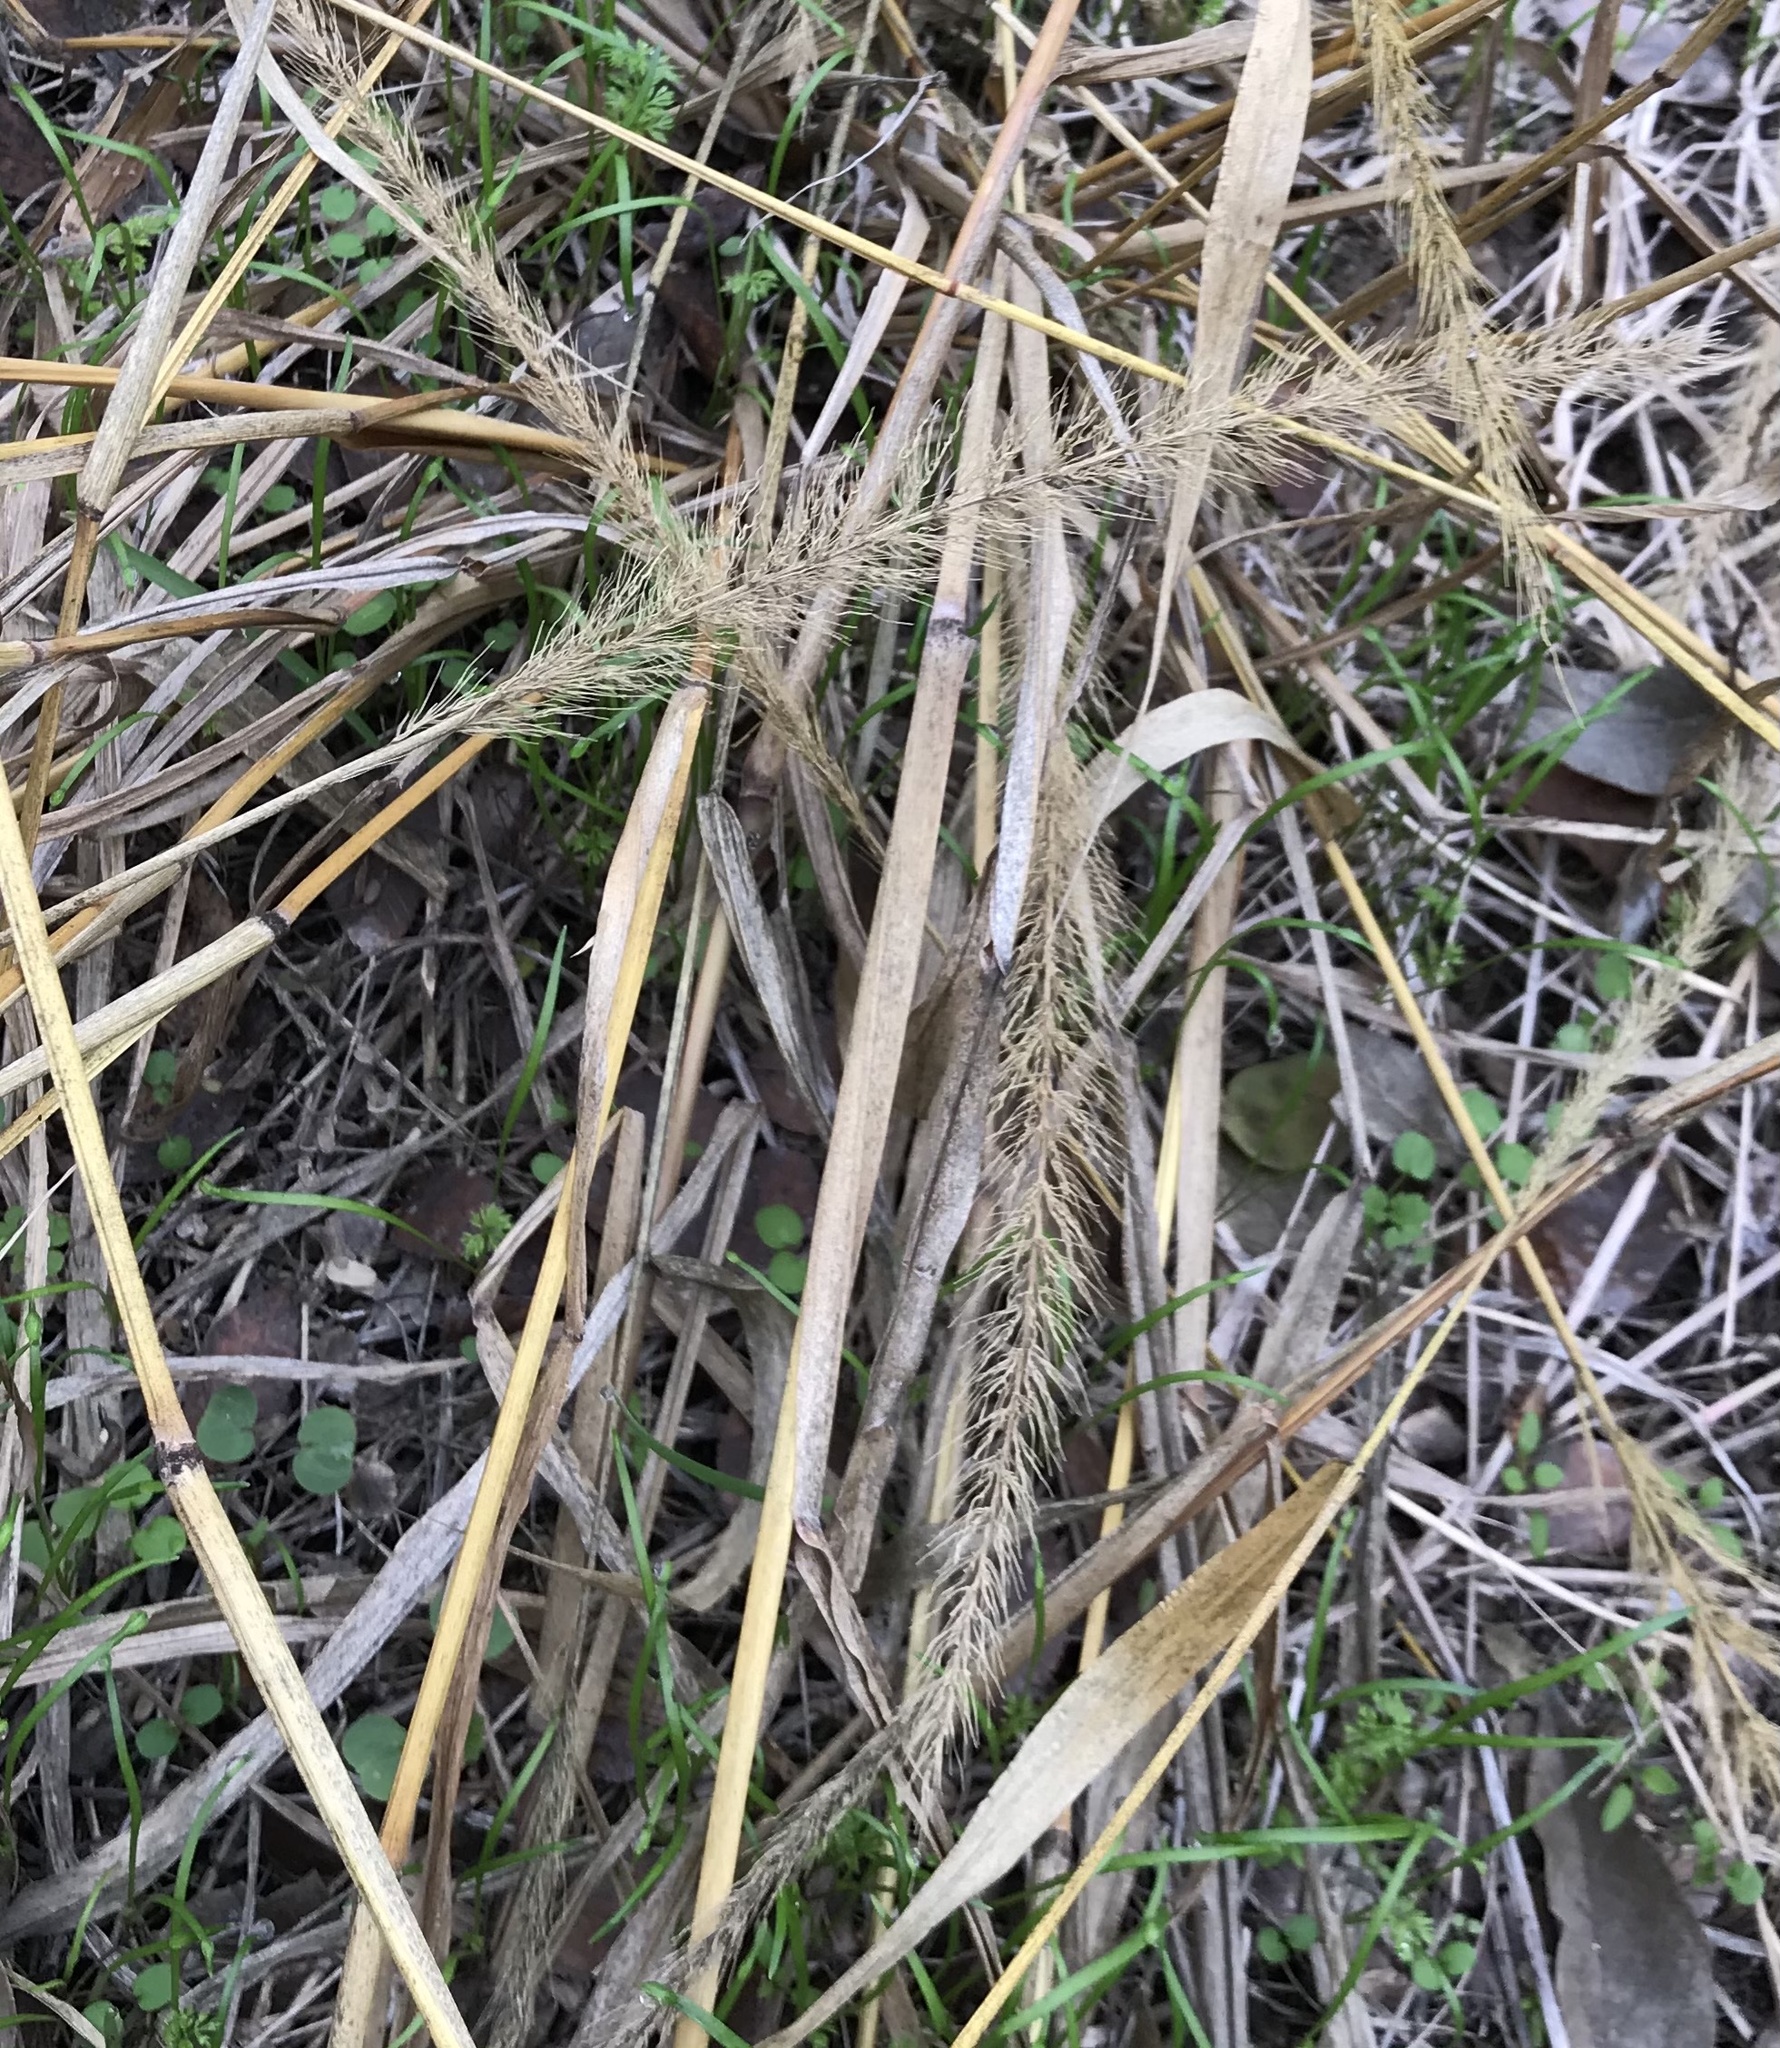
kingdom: Plantae
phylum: Tracheophyta
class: Liliopsida
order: Poales
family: Poaceae
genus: Setaria
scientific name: Setaria scheelei
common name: Southwestern bristle grass
